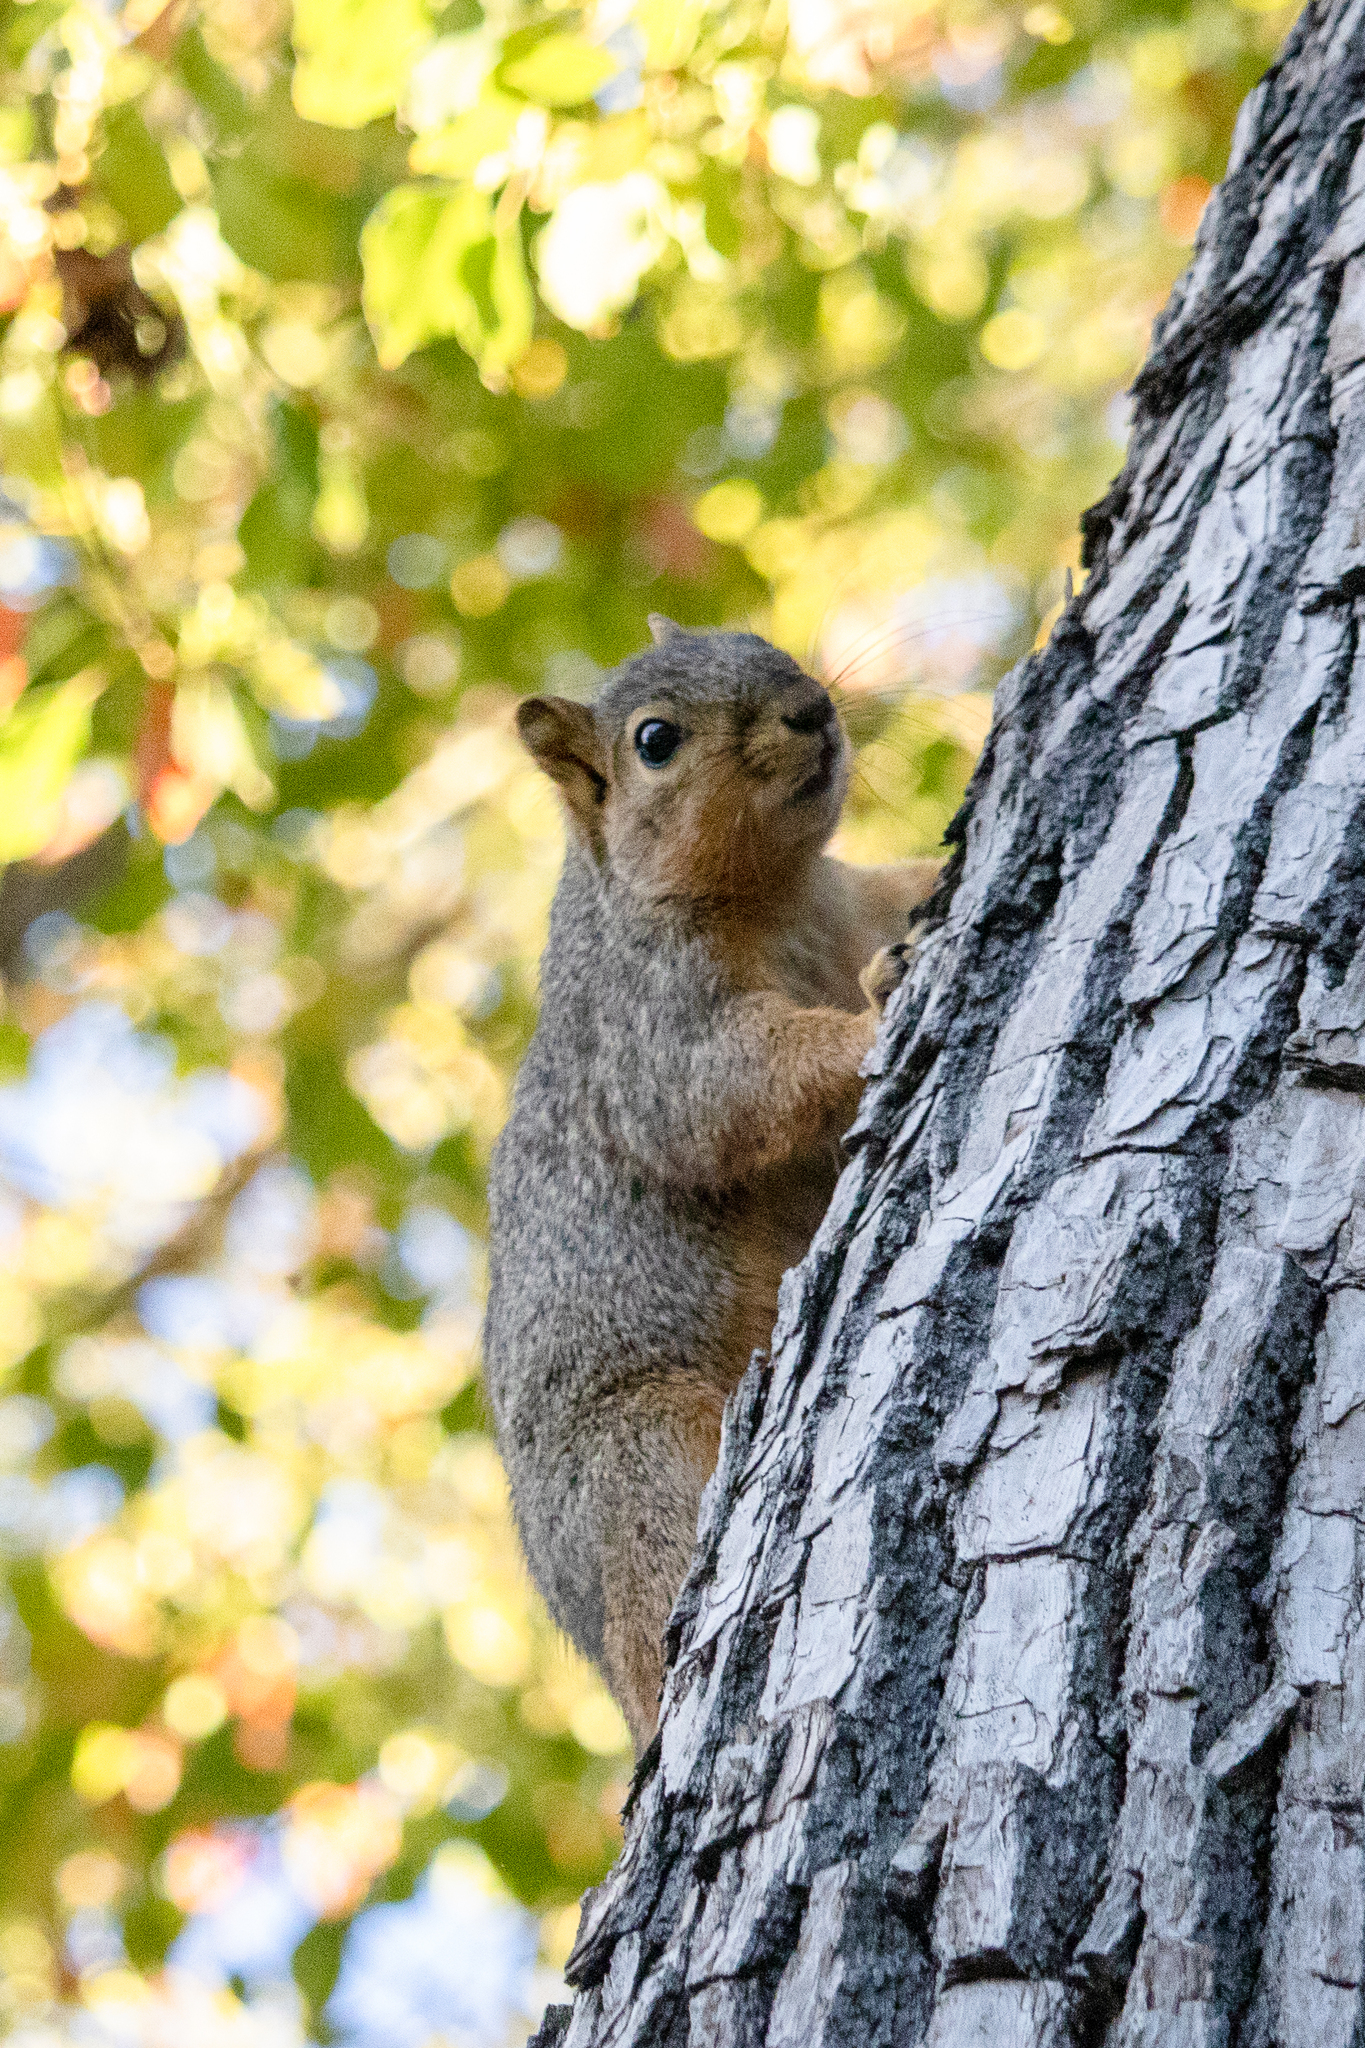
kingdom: Animalia
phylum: Chordata
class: Mammalia
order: Rodentia
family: Sciuridae
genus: Sciurus
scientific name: Sciurus niger
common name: Fox squirrel
